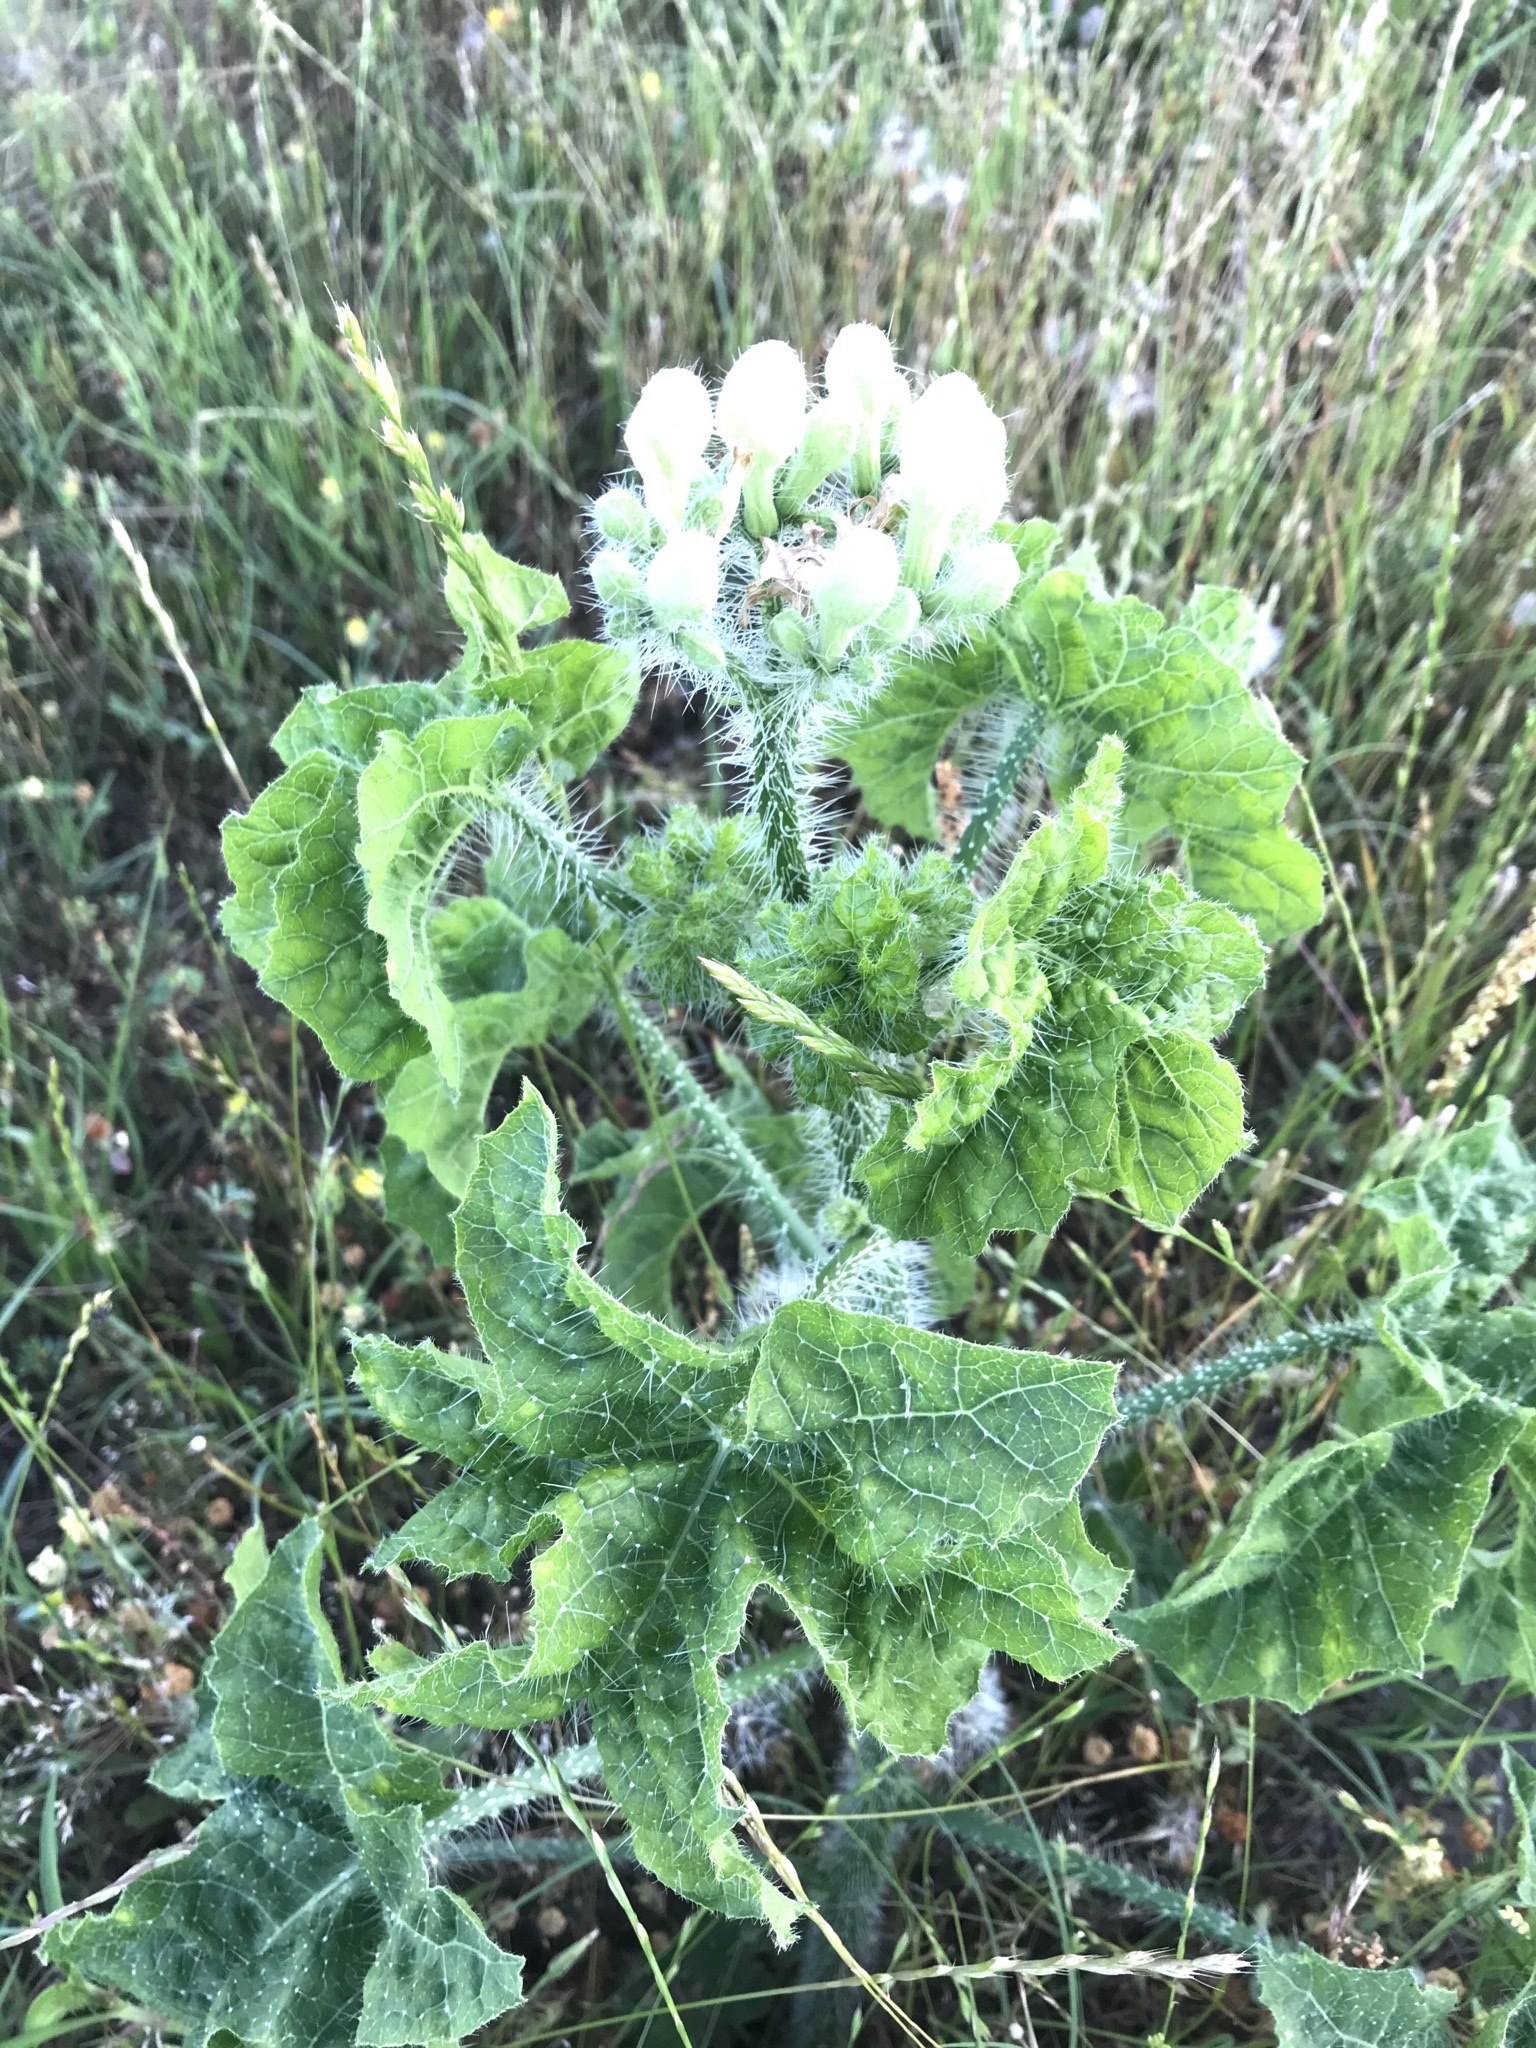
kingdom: Plantae
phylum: Tracheophyta
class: Magnoliopsida
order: Malpighiales
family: Euphorbiaceae
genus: Cnidoscolus
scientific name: Cnidoscolus texanus
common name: Texas bull-nettle
